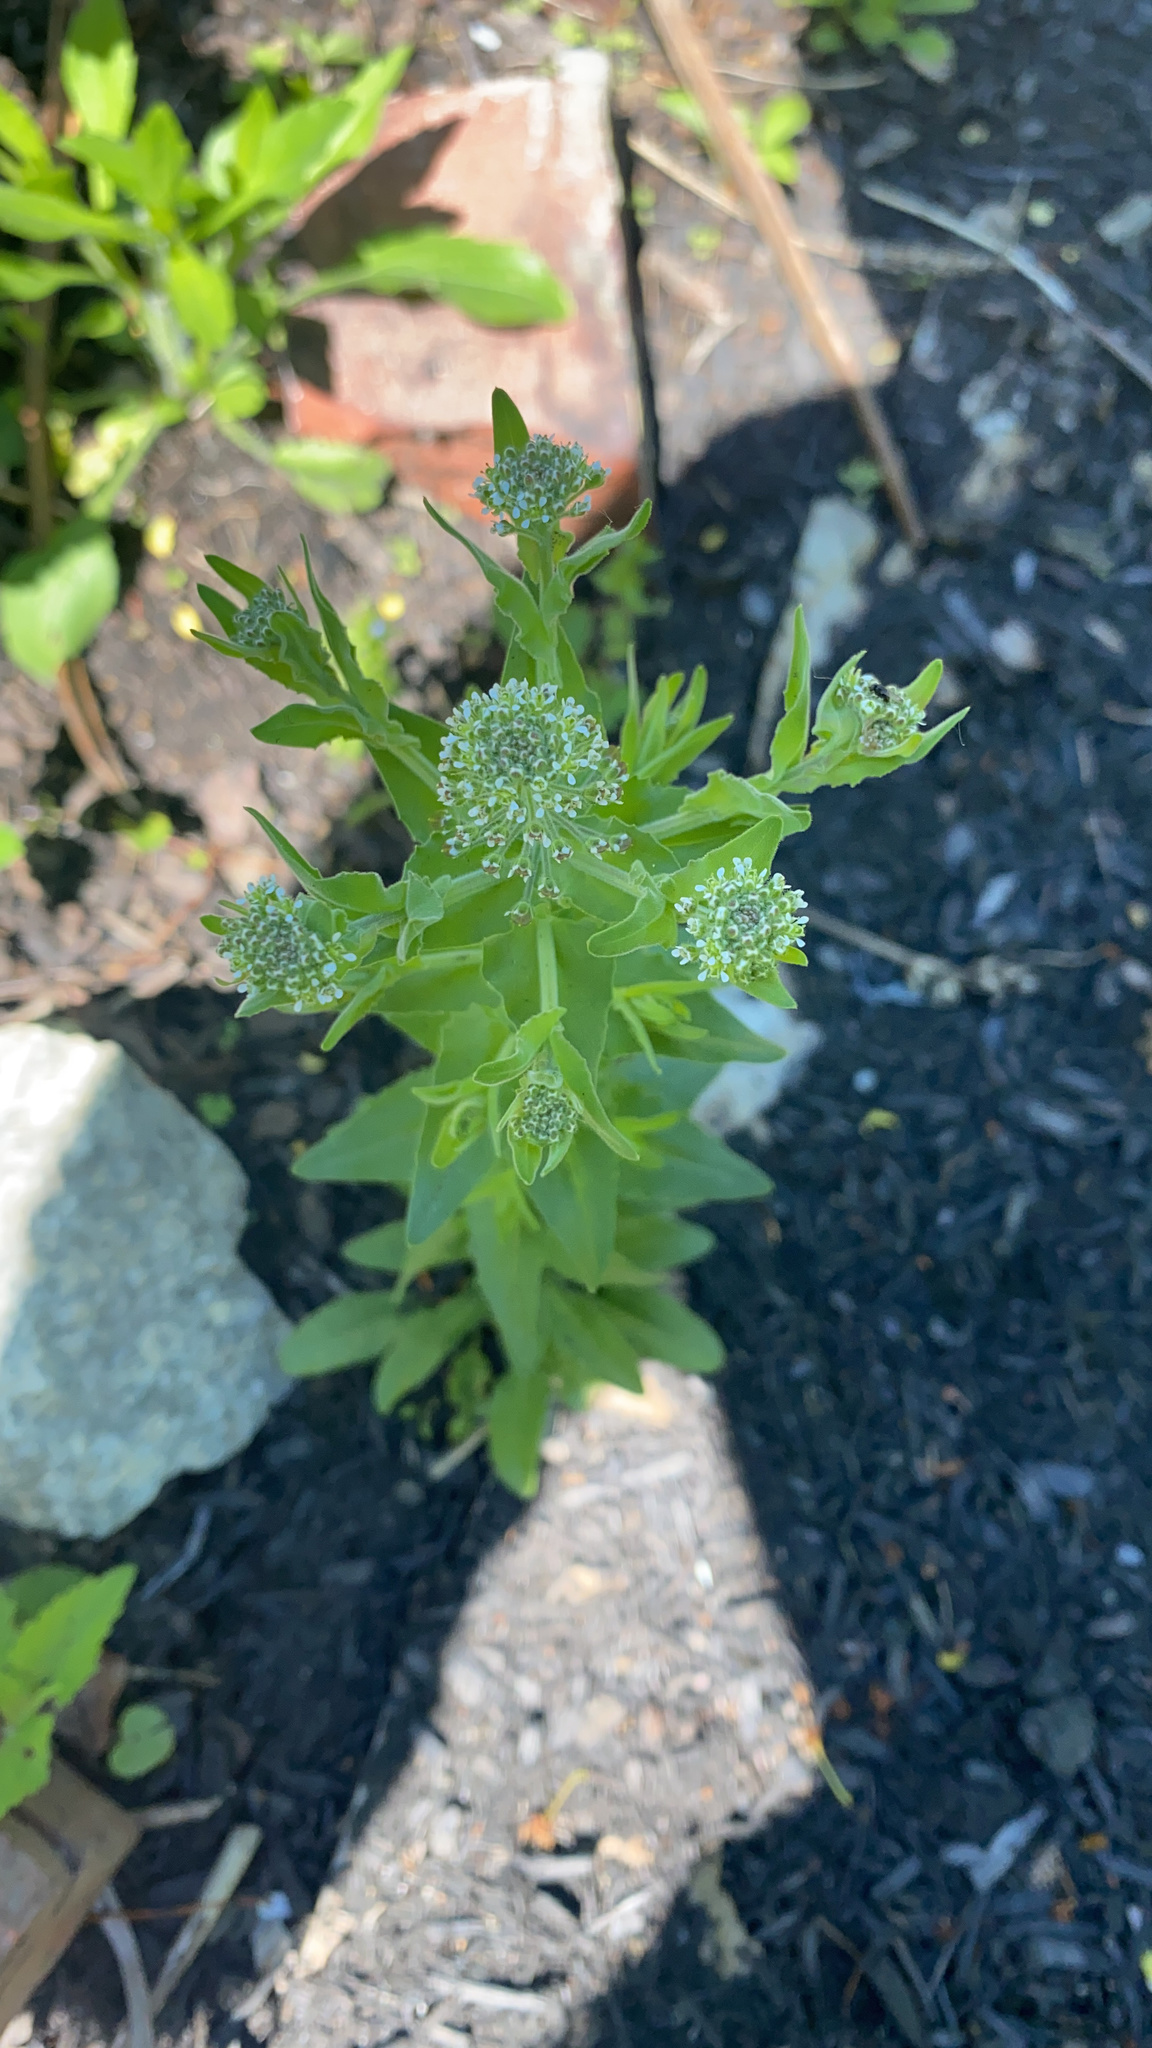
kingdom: Plantae
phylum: Tracheophyta
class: Magnoliopsida
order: Brassicales
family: Brassicaceae
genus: Lepidium
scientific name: Lepidium campestre
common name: Field pepperwort
